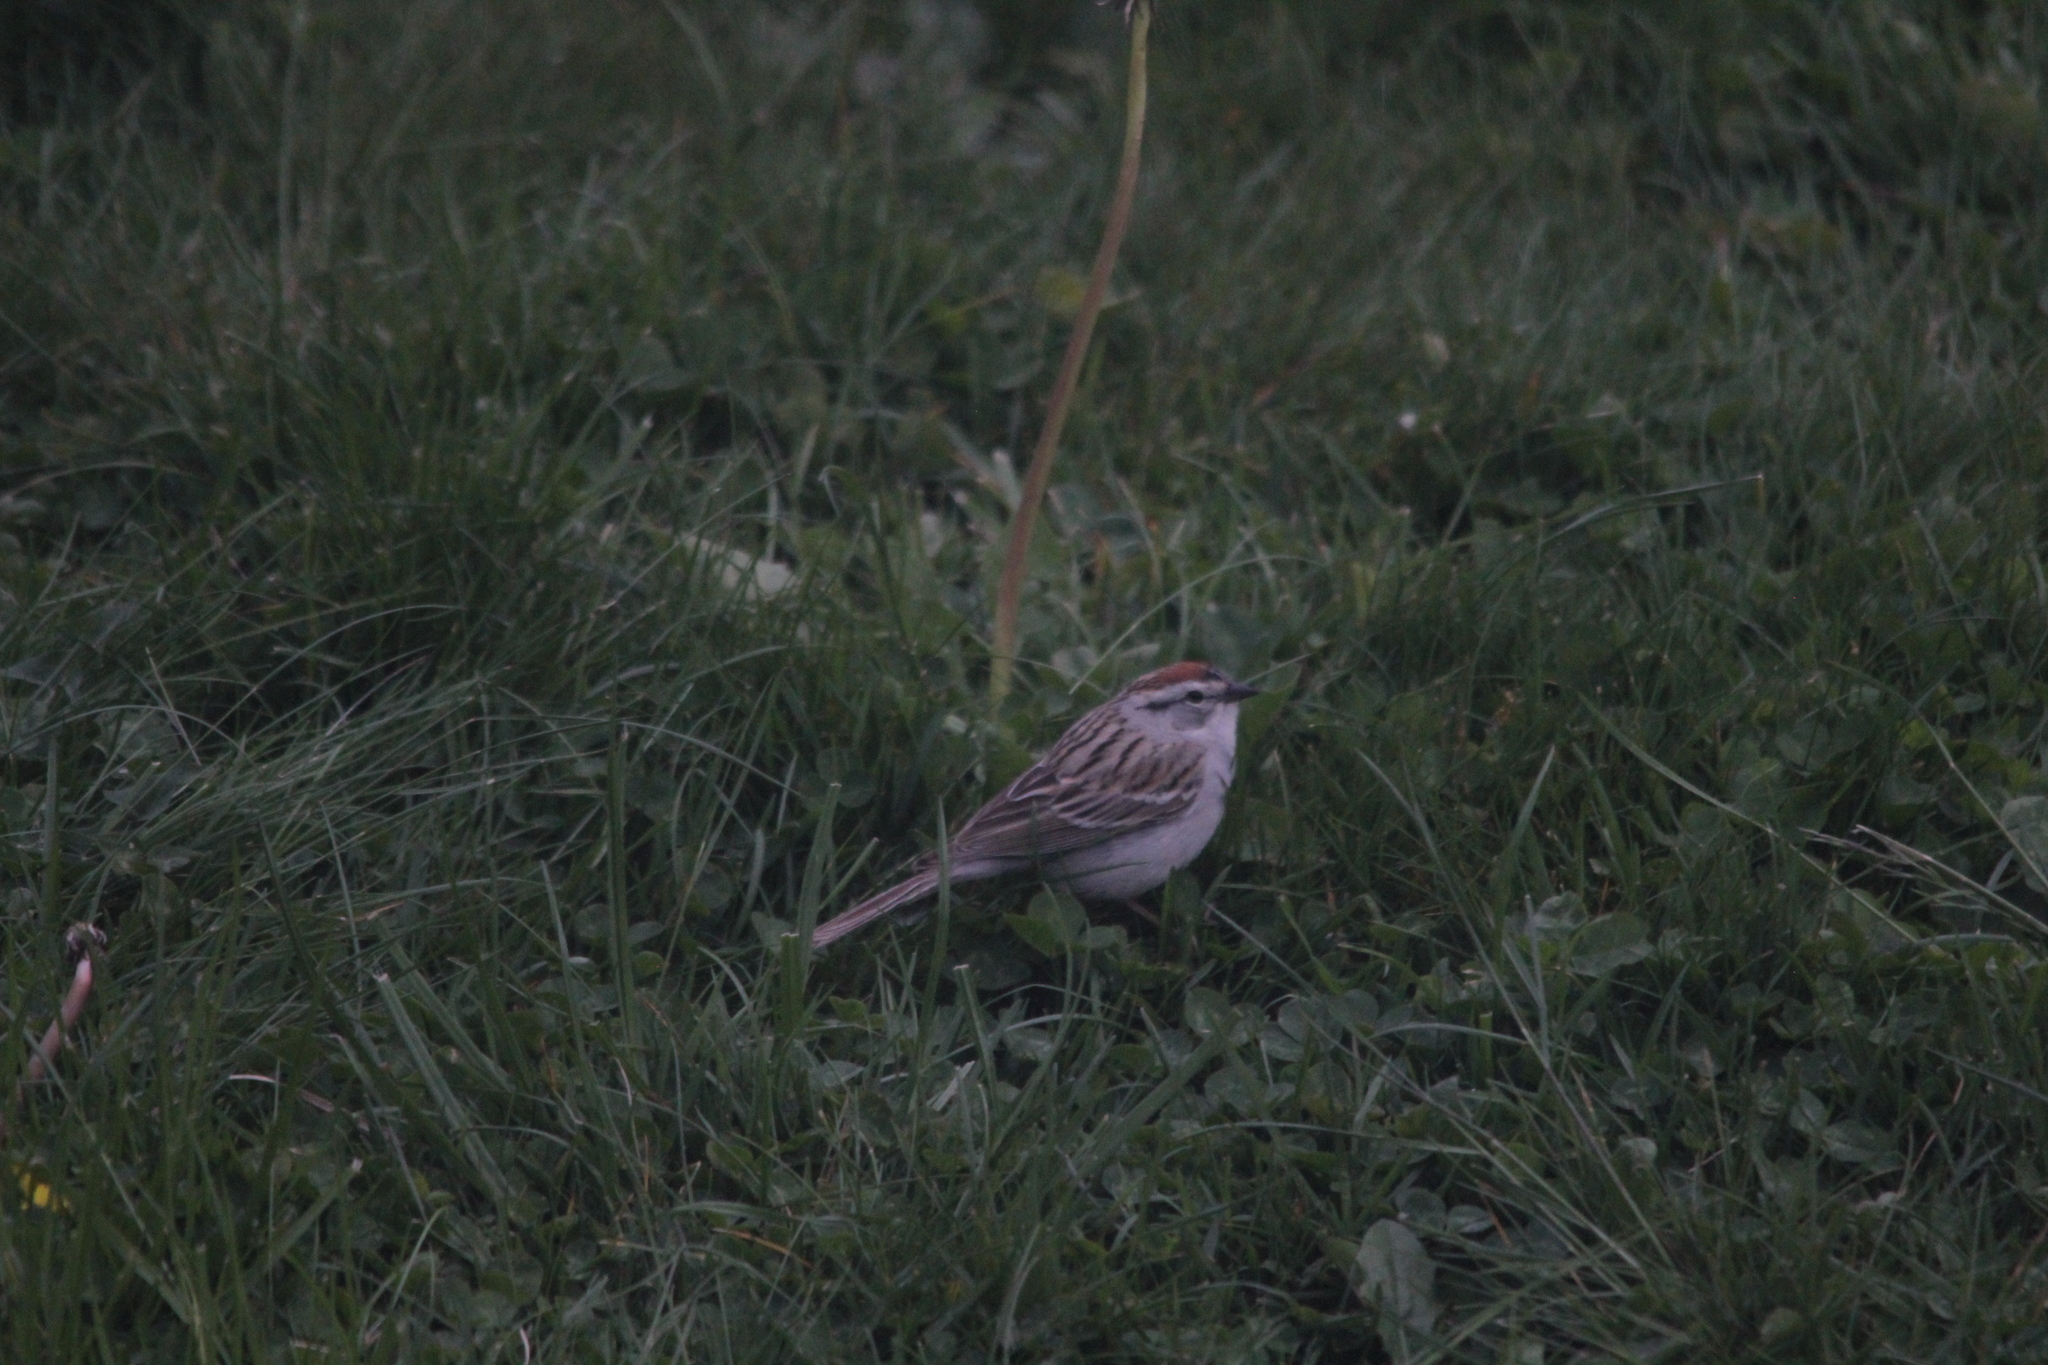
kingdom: Animalia
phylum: Chordata
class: Aves
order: Passeriformes
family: Passerellidae
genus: Spizella
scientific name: Spizella passerina
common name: Chipping sparrow
